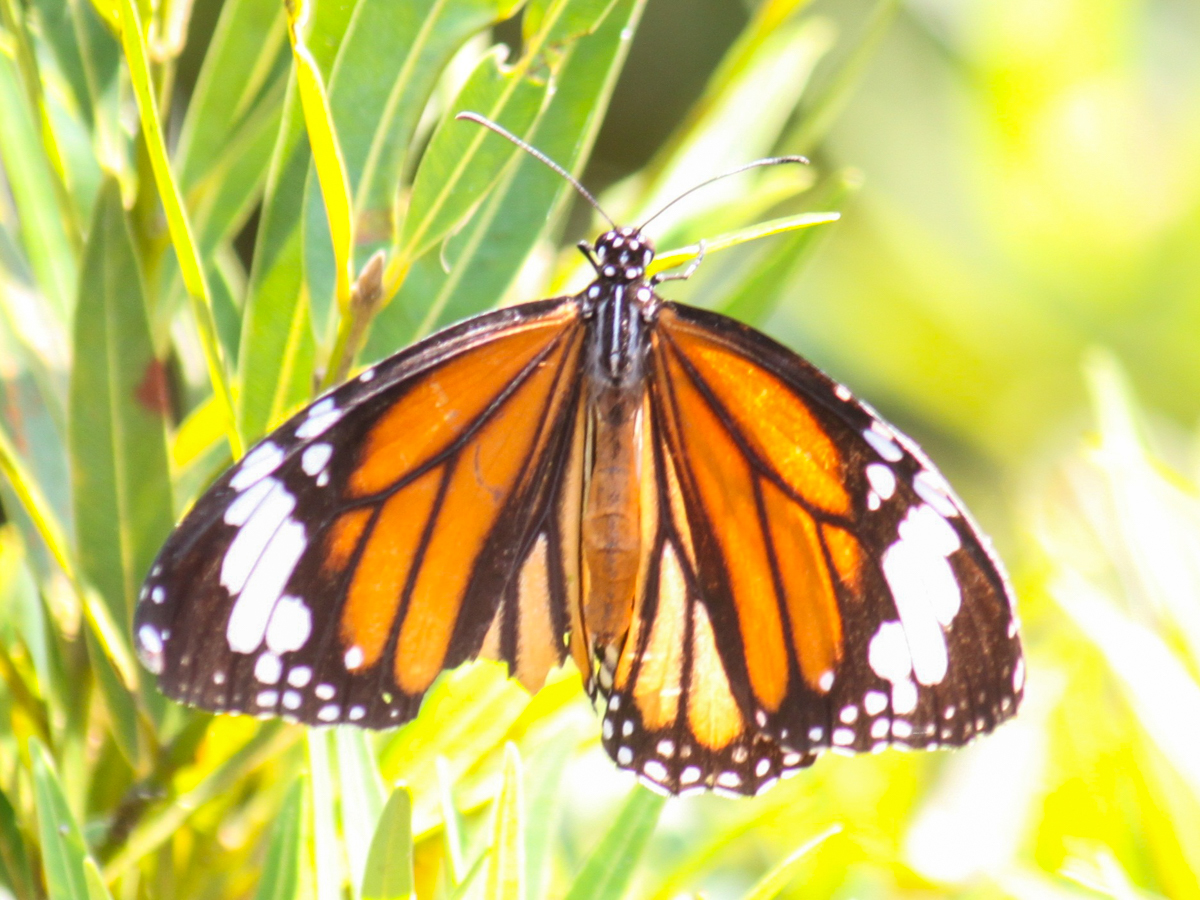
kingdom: Animalia
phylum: Arthropoda
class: Insecta
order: Lepidoptera
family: Nymphalidae
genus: Danaus
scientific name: Danaus genutia
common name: Common tiger butterfly
